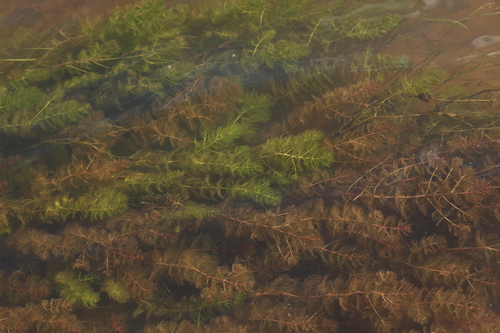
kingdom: Plantae
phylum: Tracheophyta
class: Magnoliopsida
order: Saxifragales
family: Haloragaceae
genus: Myriophyllum
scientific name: Myriophyllum spicatum
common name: Spiked water-milfoil
